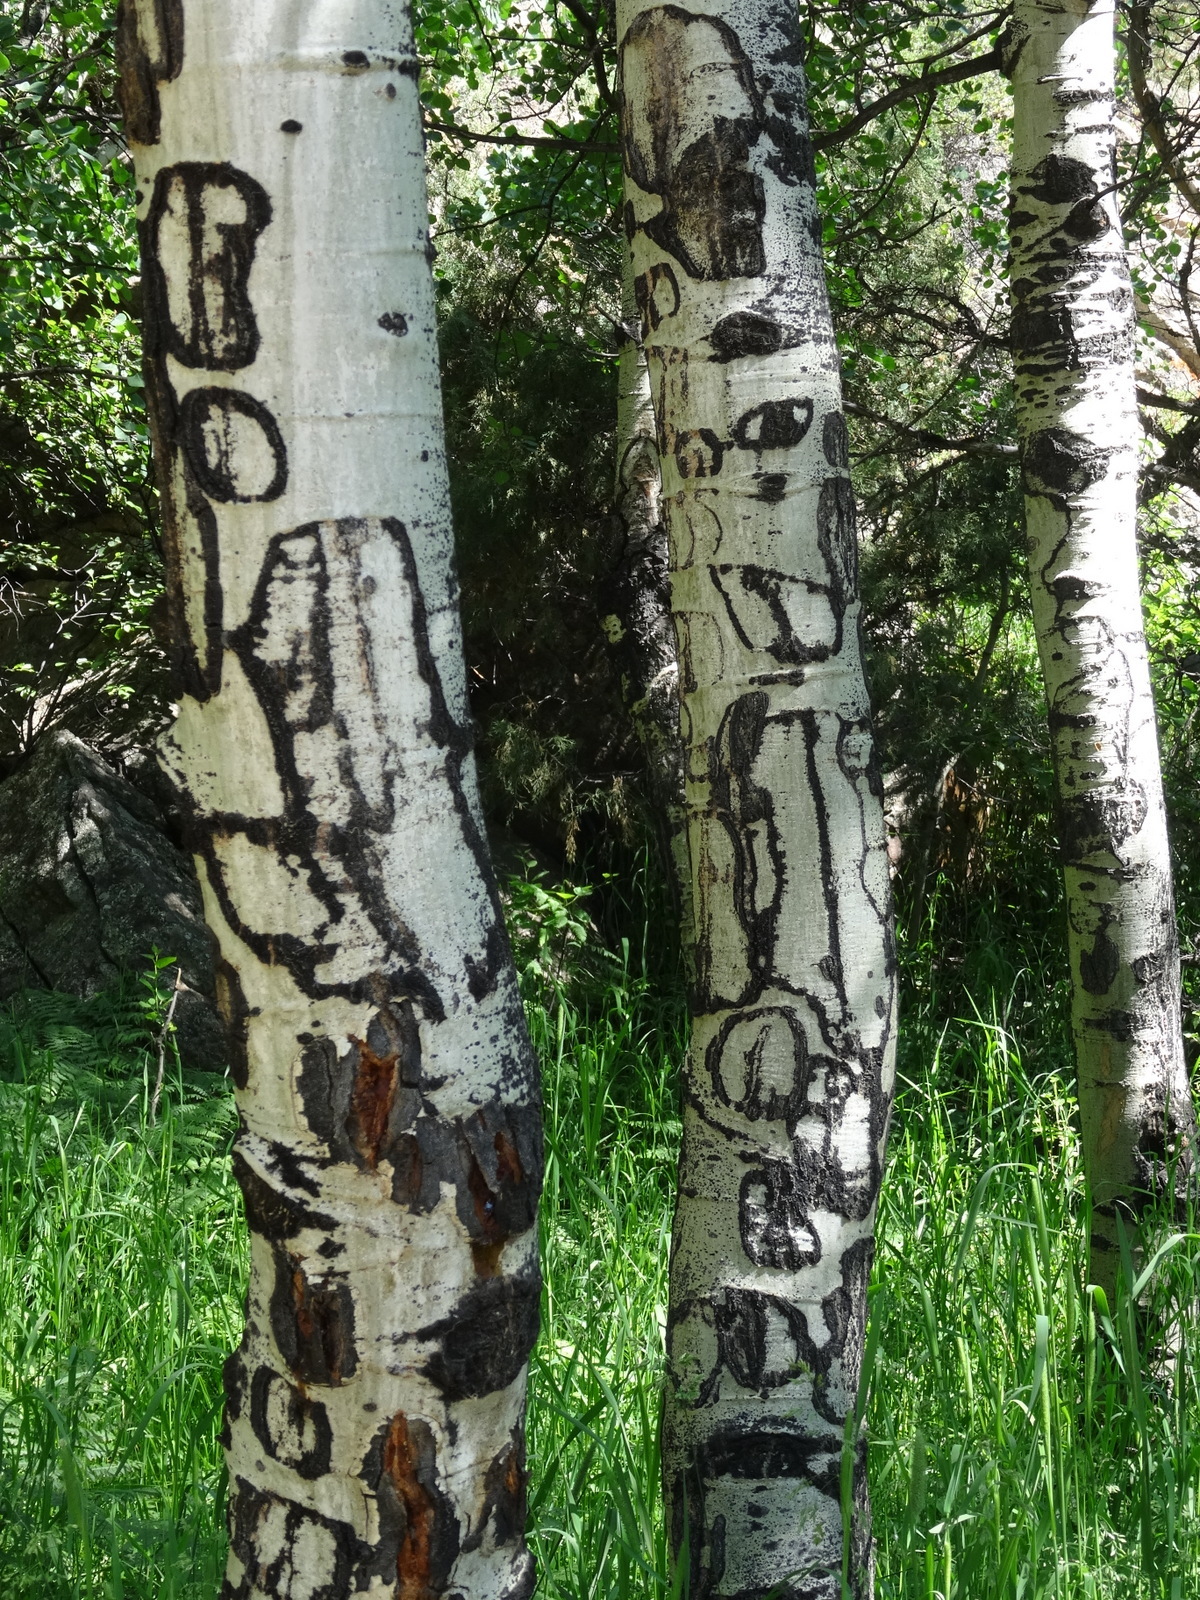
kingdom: Plantae
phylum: Tracheophyta
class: Magnoliopsida
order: Malpighiales
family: Salicaceae
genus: Populus
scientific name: Populus tremuloides
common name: Quaking aspen
